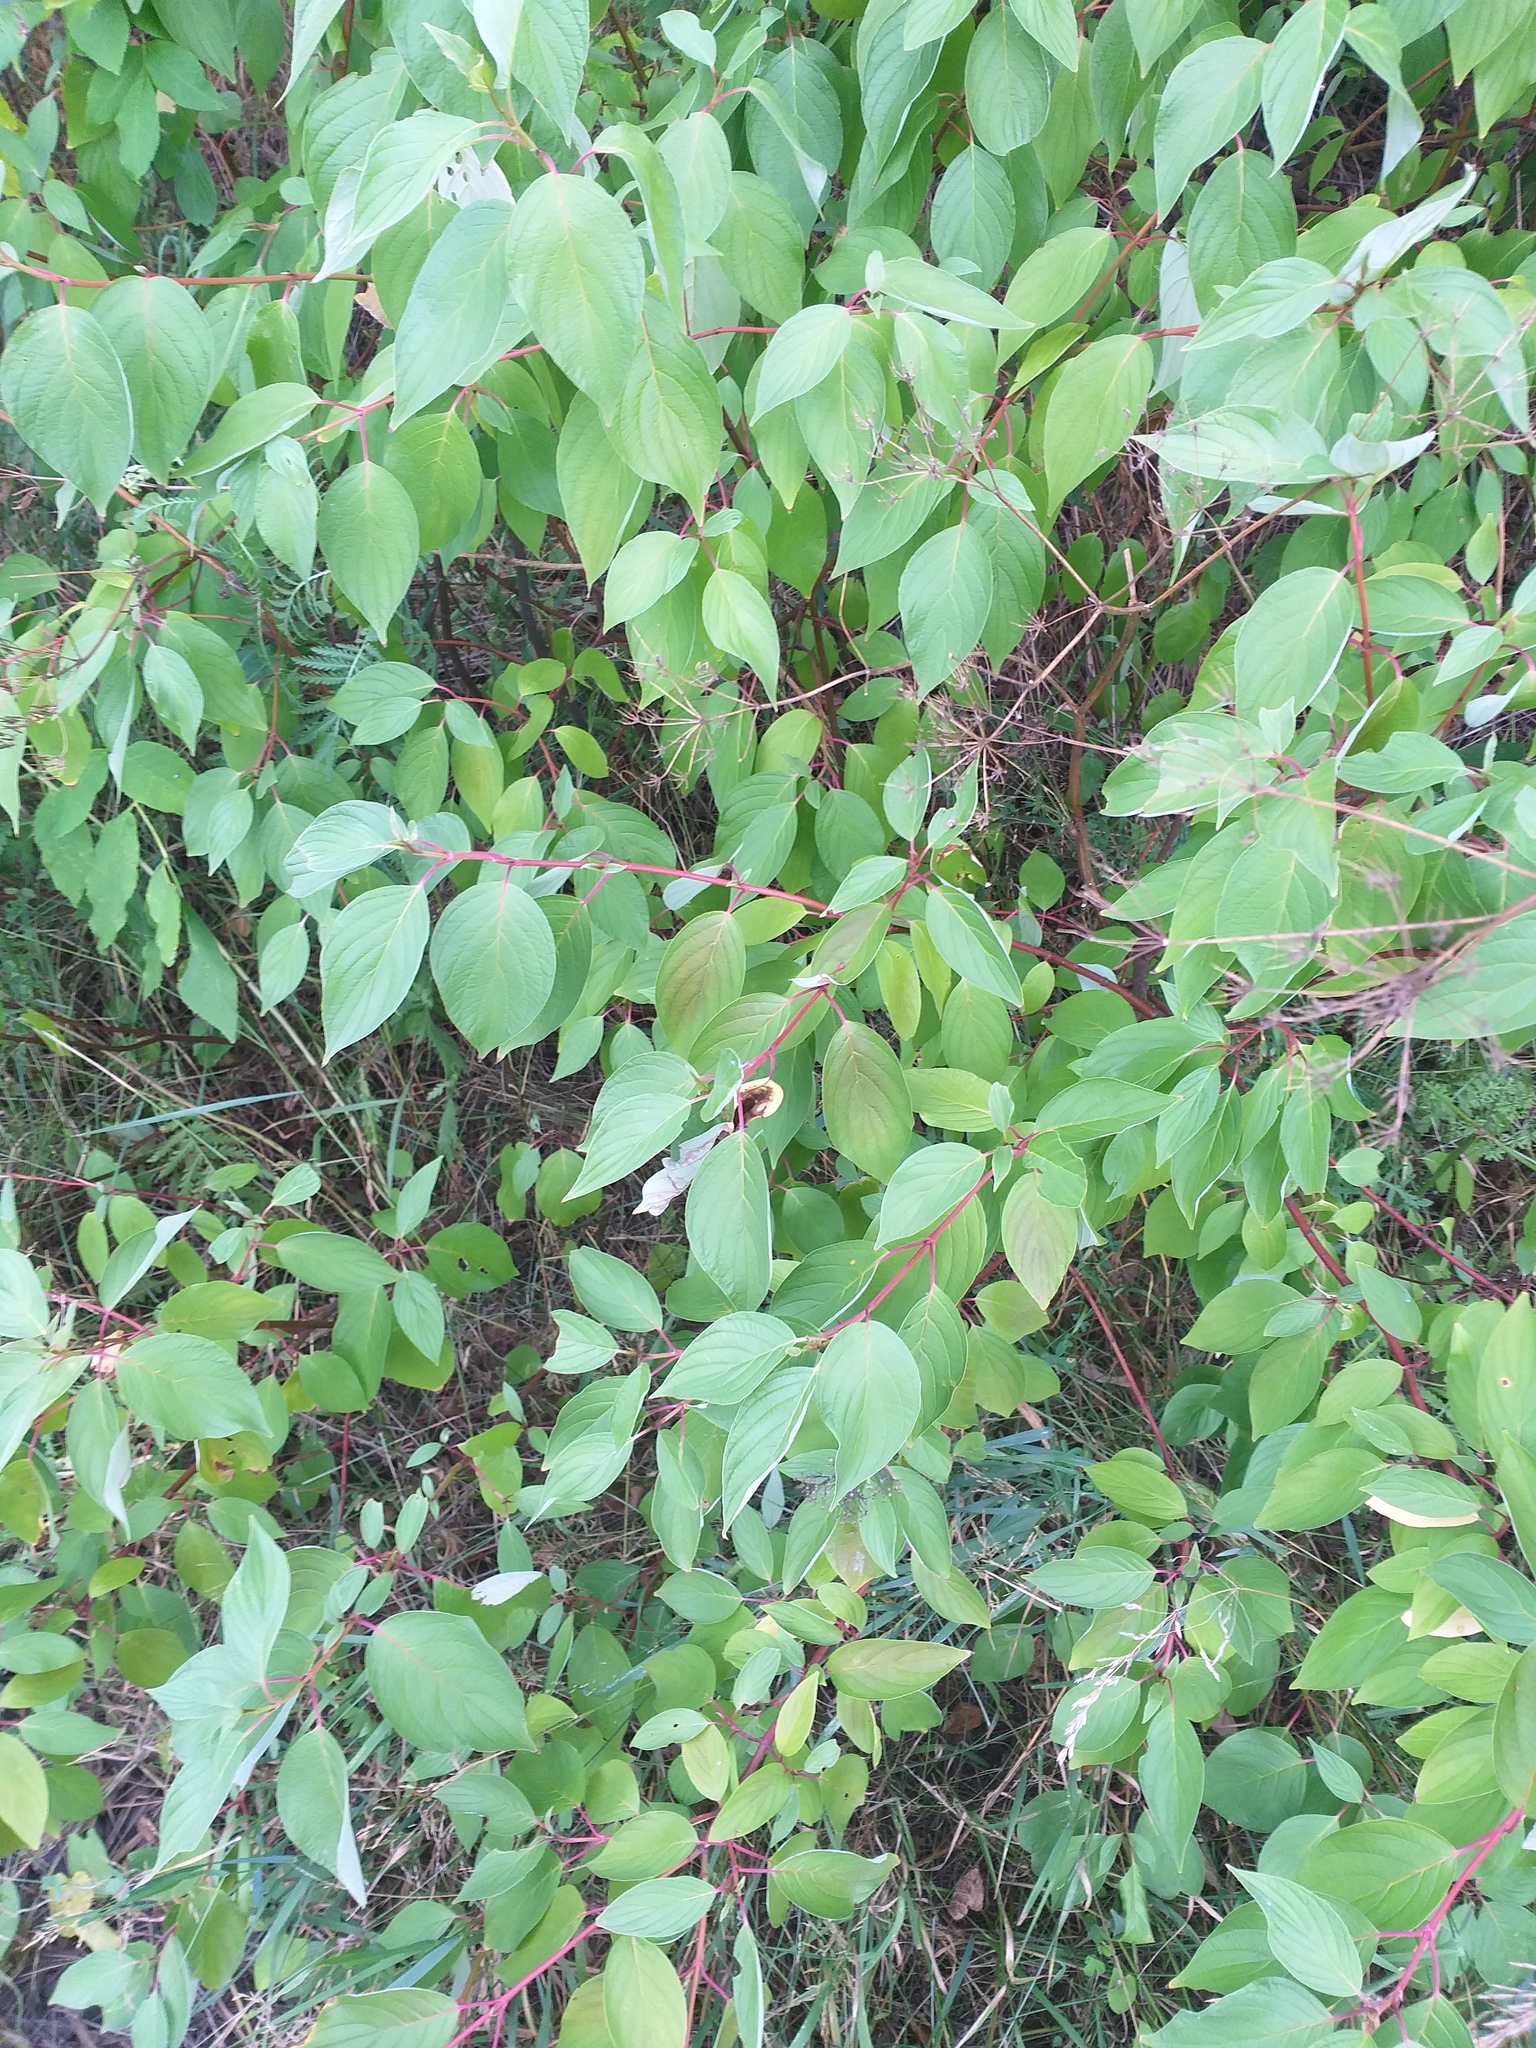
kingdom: Plantae
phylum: Tracheophyta
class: Magnoliopsida
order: Cornales
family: Cornaceae
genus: Cornus
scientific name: Cornus alba
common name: White dogwood
